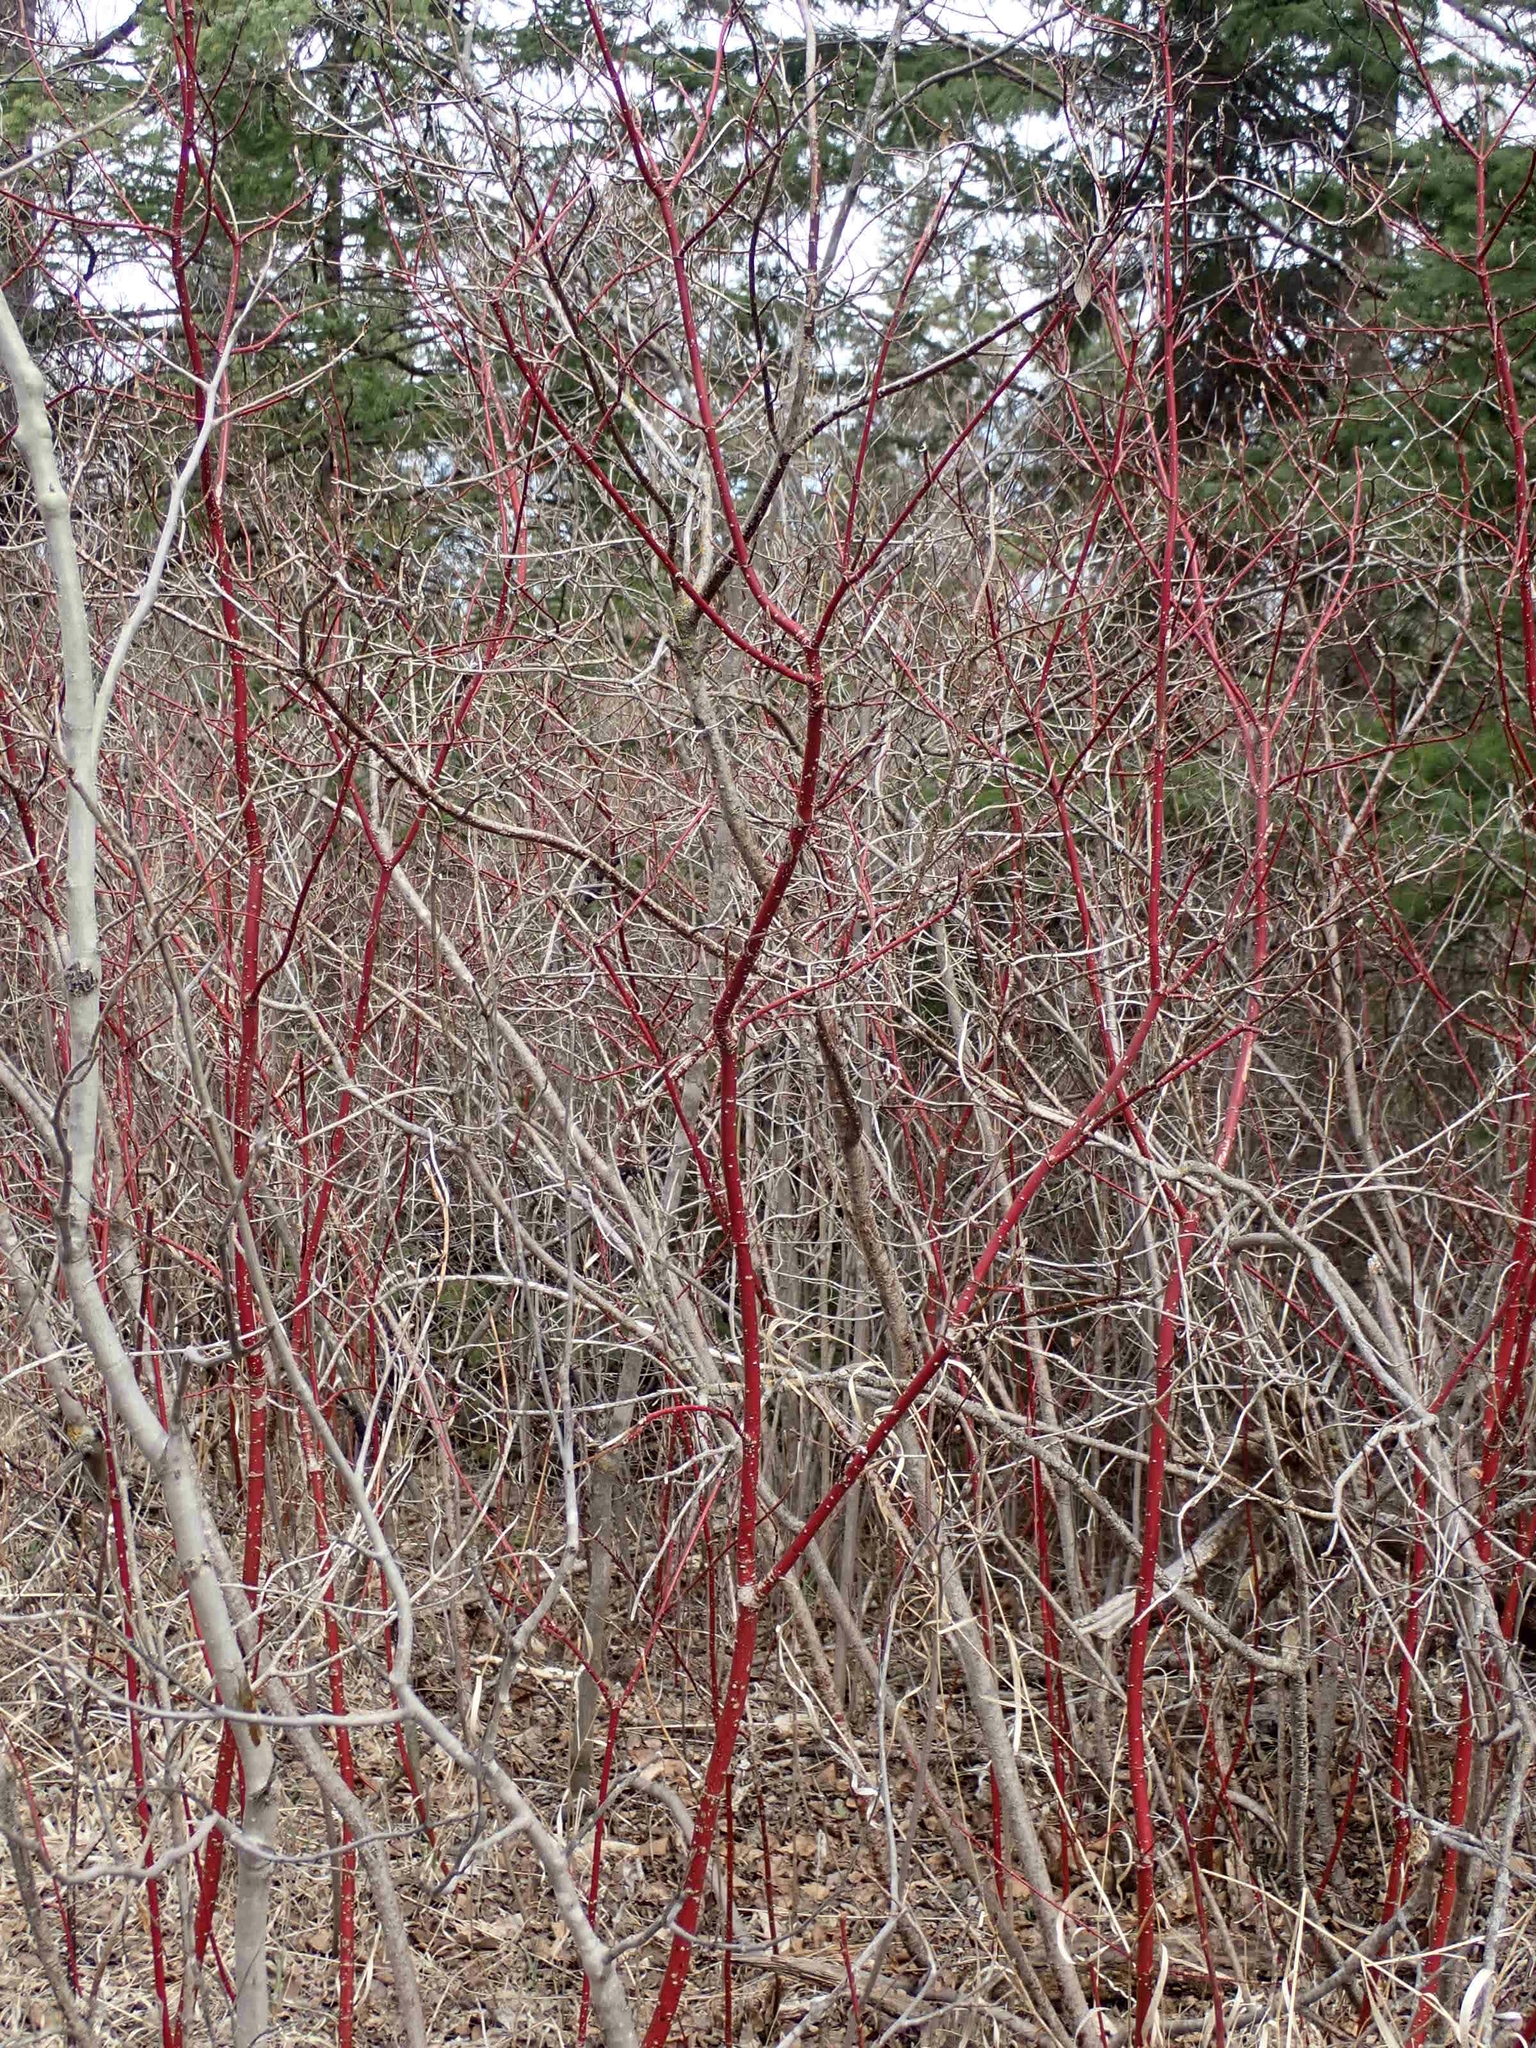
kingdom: Plantae
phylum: Tracheophyta
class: Magnoliopsida
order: Cornales
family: Cornaceae
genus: Cornus
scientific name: Cornus sericea
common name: Red-osier dogwood
